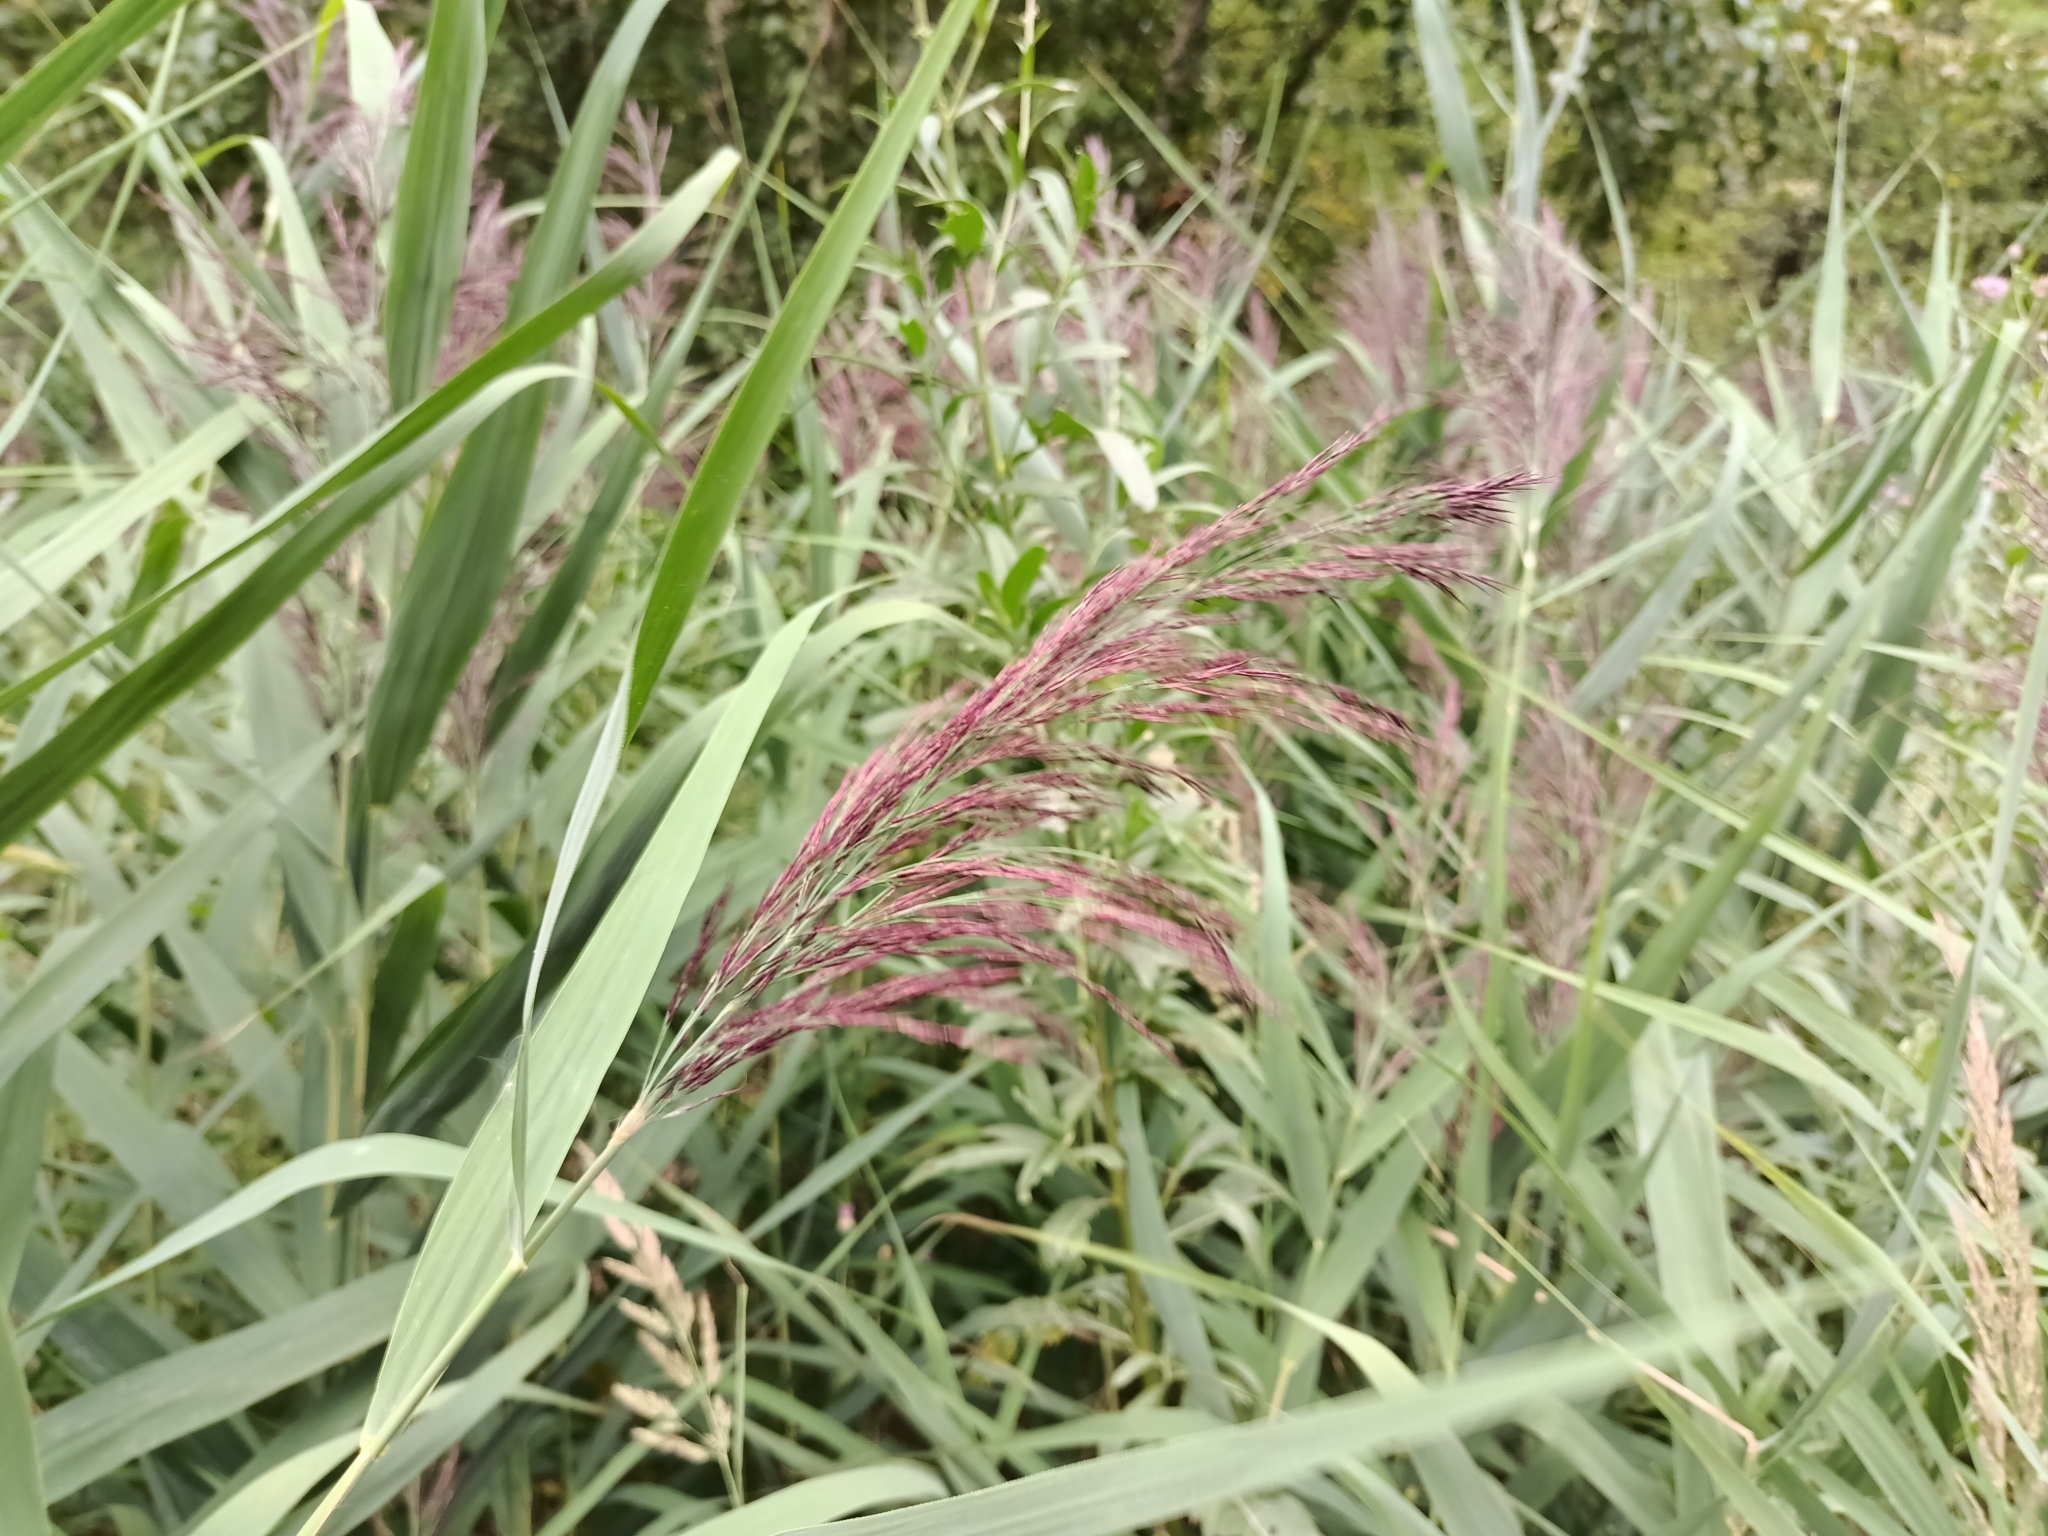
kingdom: Plantae
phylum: Tracheophyta
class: Liliopsida
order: Poales
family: Poaceae
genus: Phragmites
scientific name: Phragmites australis
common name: Common reed
